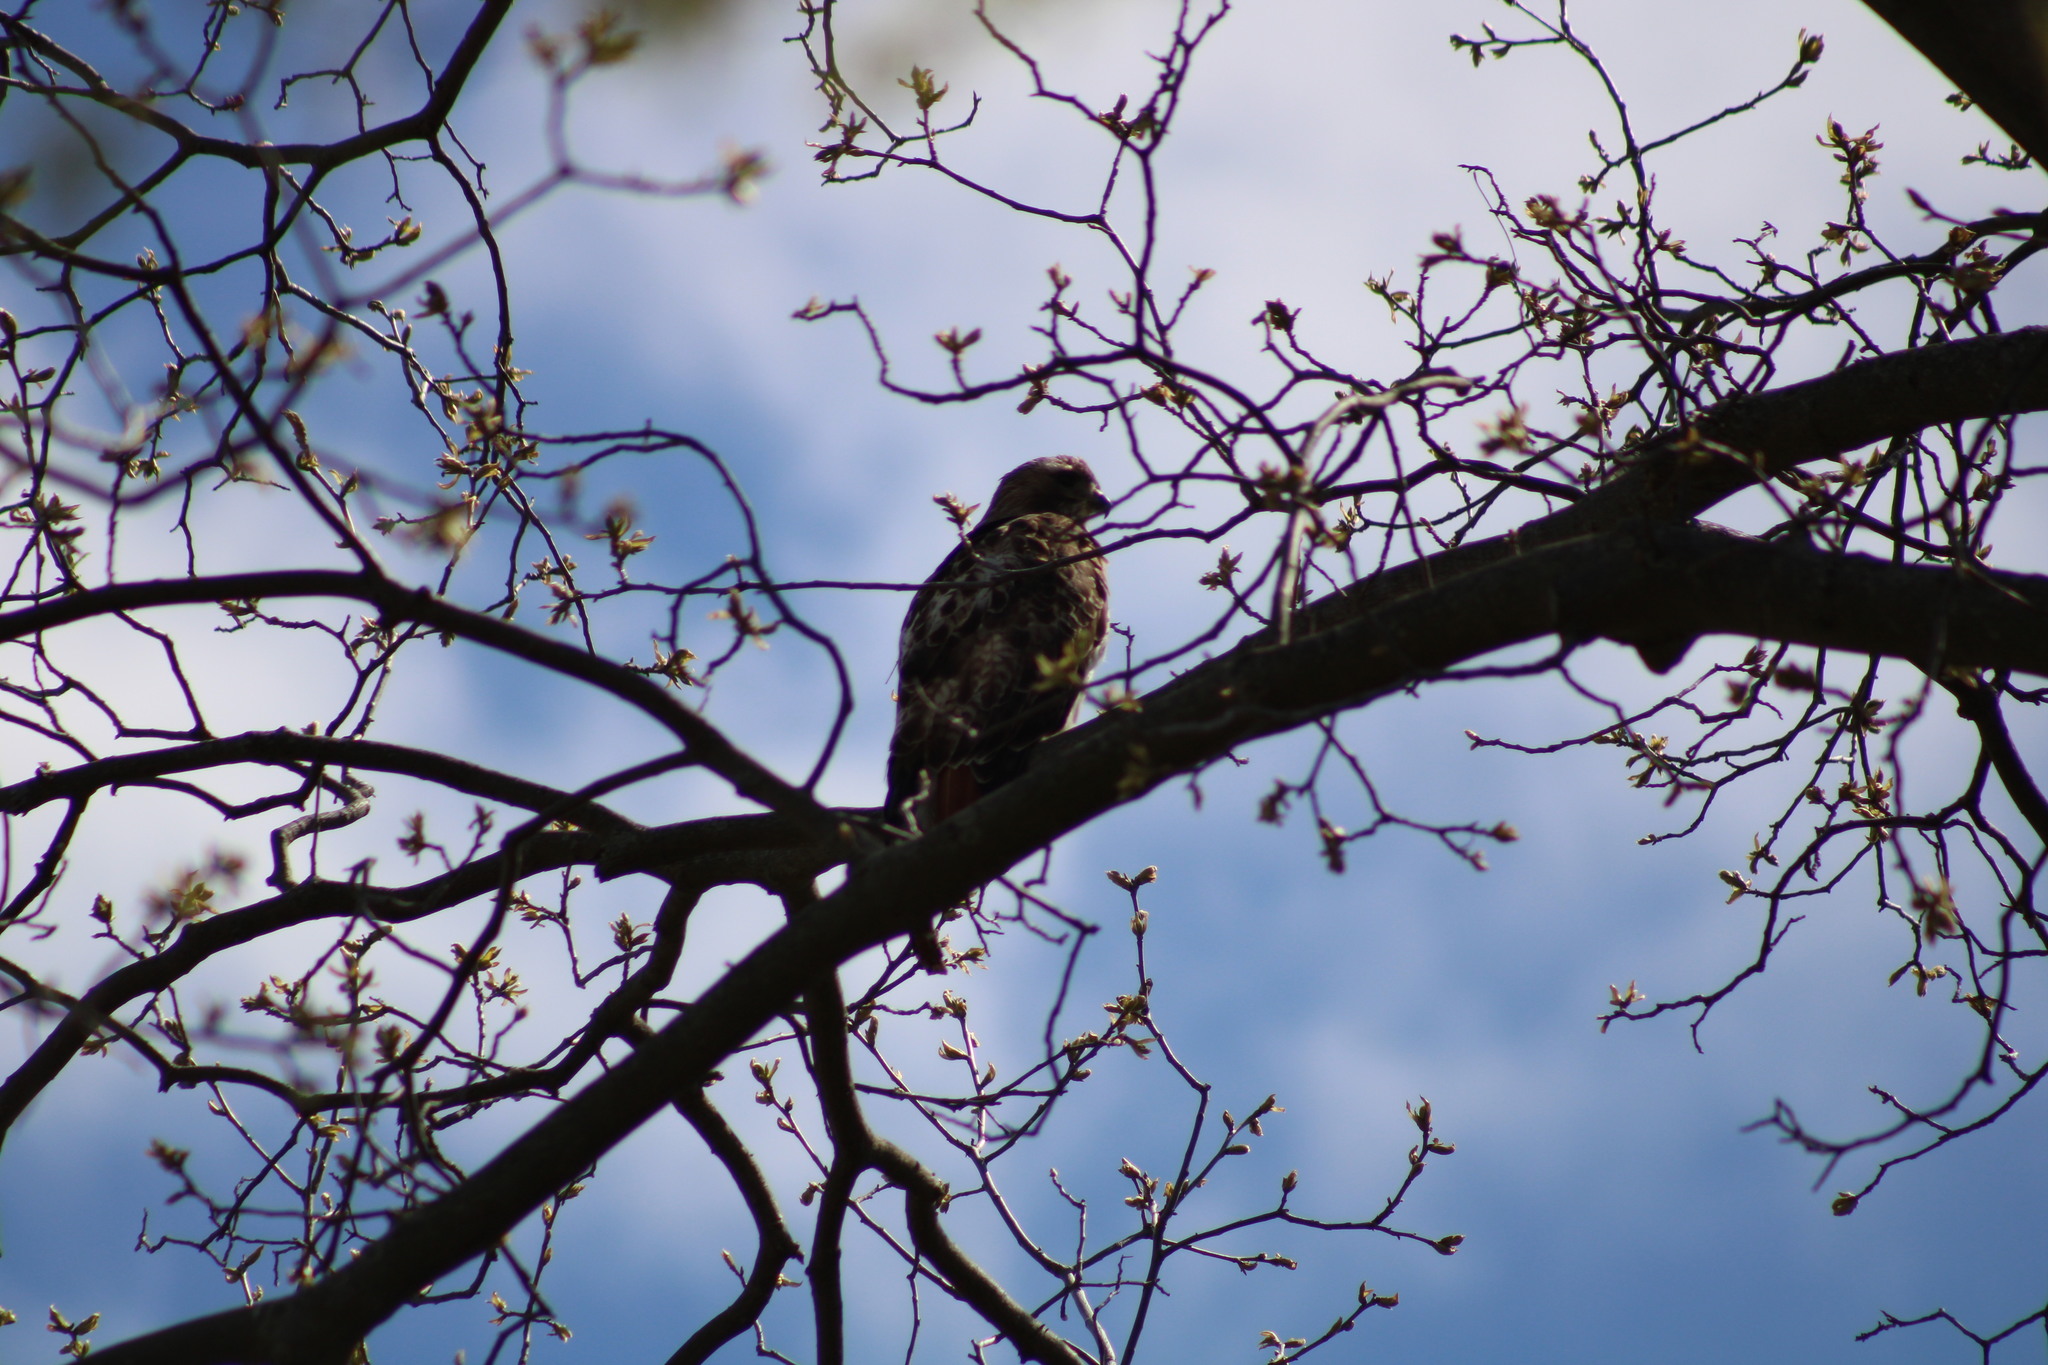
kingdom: Animalia
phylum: Chordata
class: Aves
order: Accipitriformes
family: Accipitridae
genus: Buteo
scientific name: Buteo jamaicensis
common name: Red-tailed hawk
